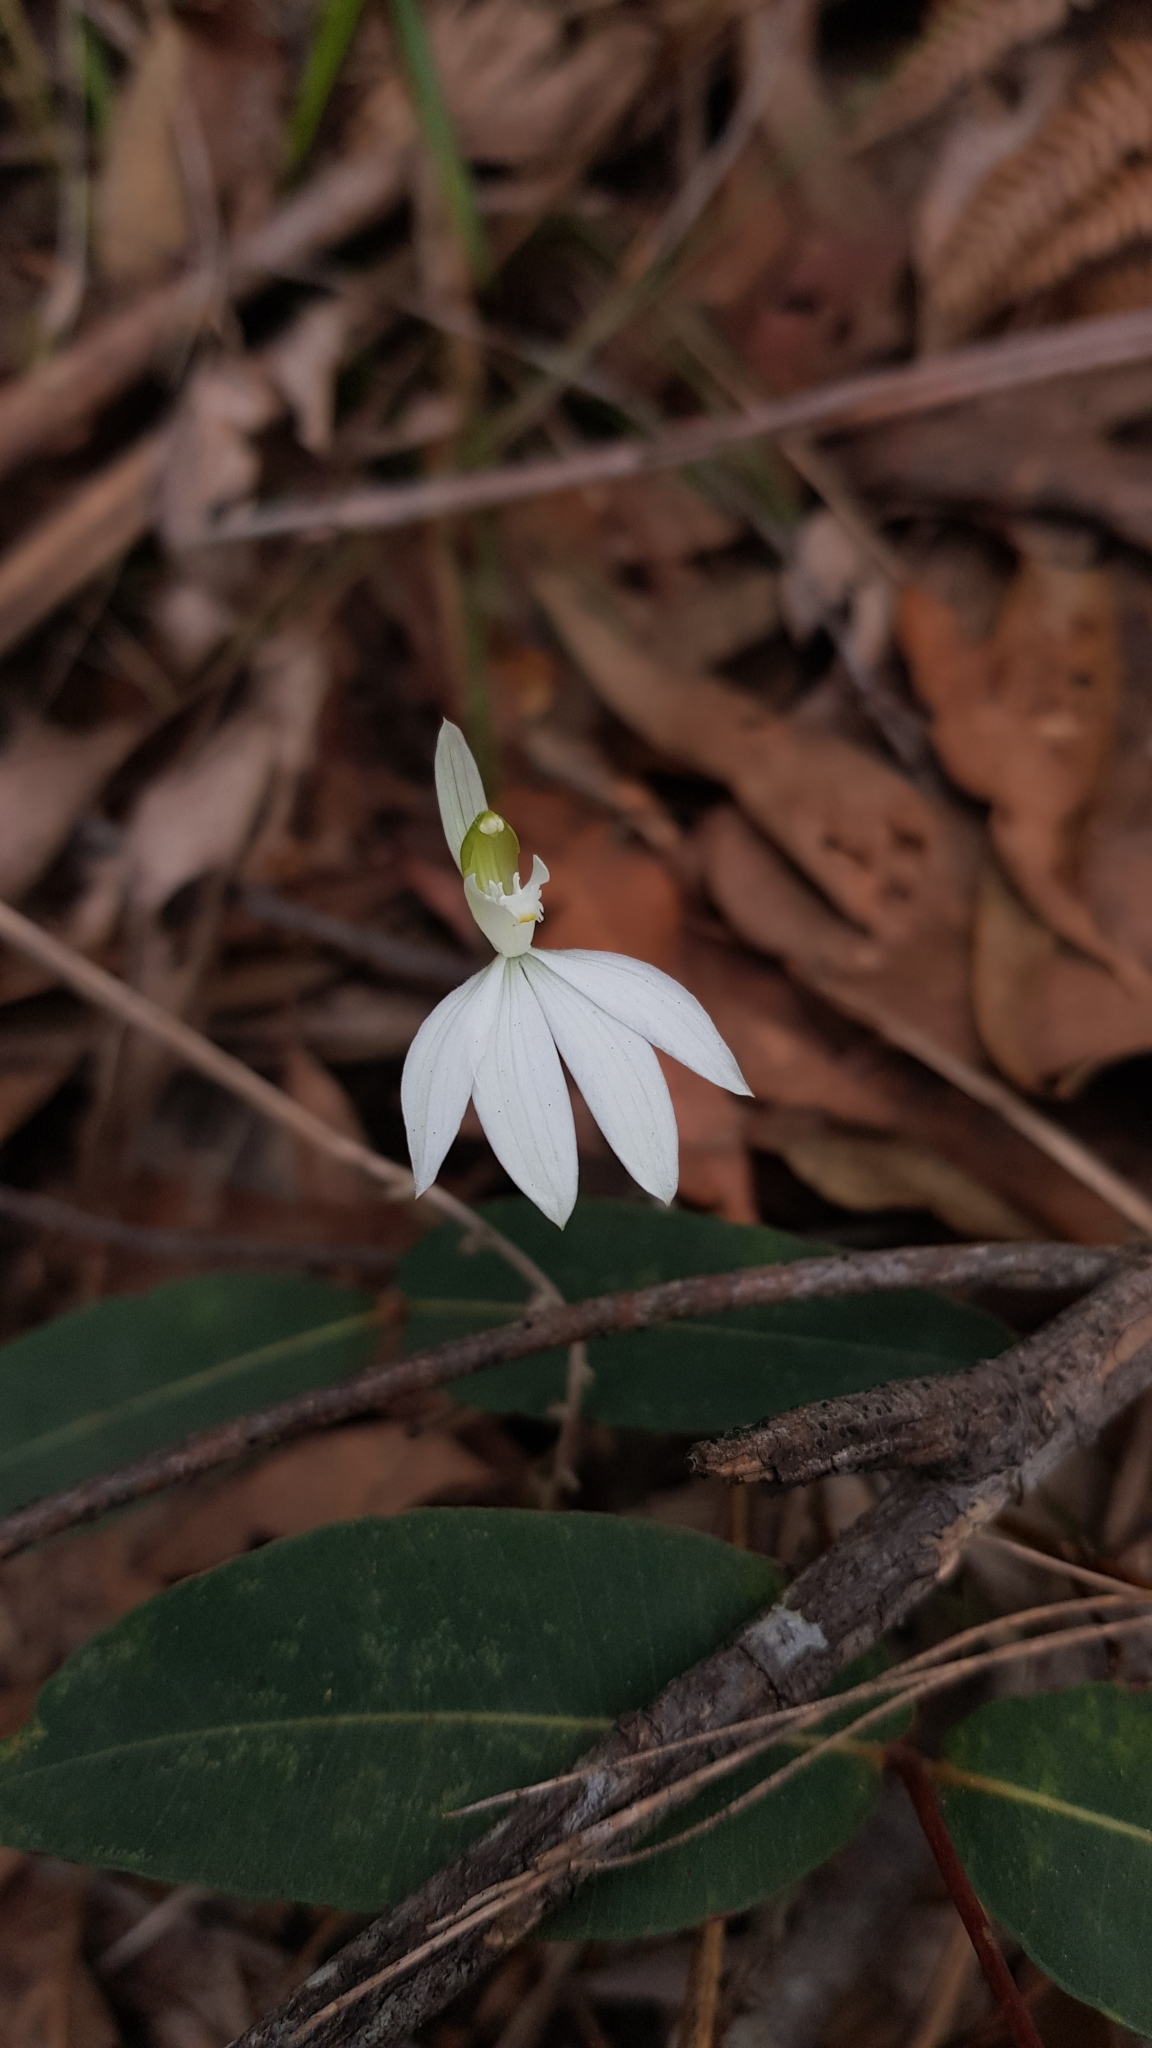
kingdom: Plantae
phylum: Tracheophyta
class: Liliopsida
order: Asparagales
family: Orchidaceae
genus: Caladenia
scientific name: Caladenia catenata
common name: White caladenia
